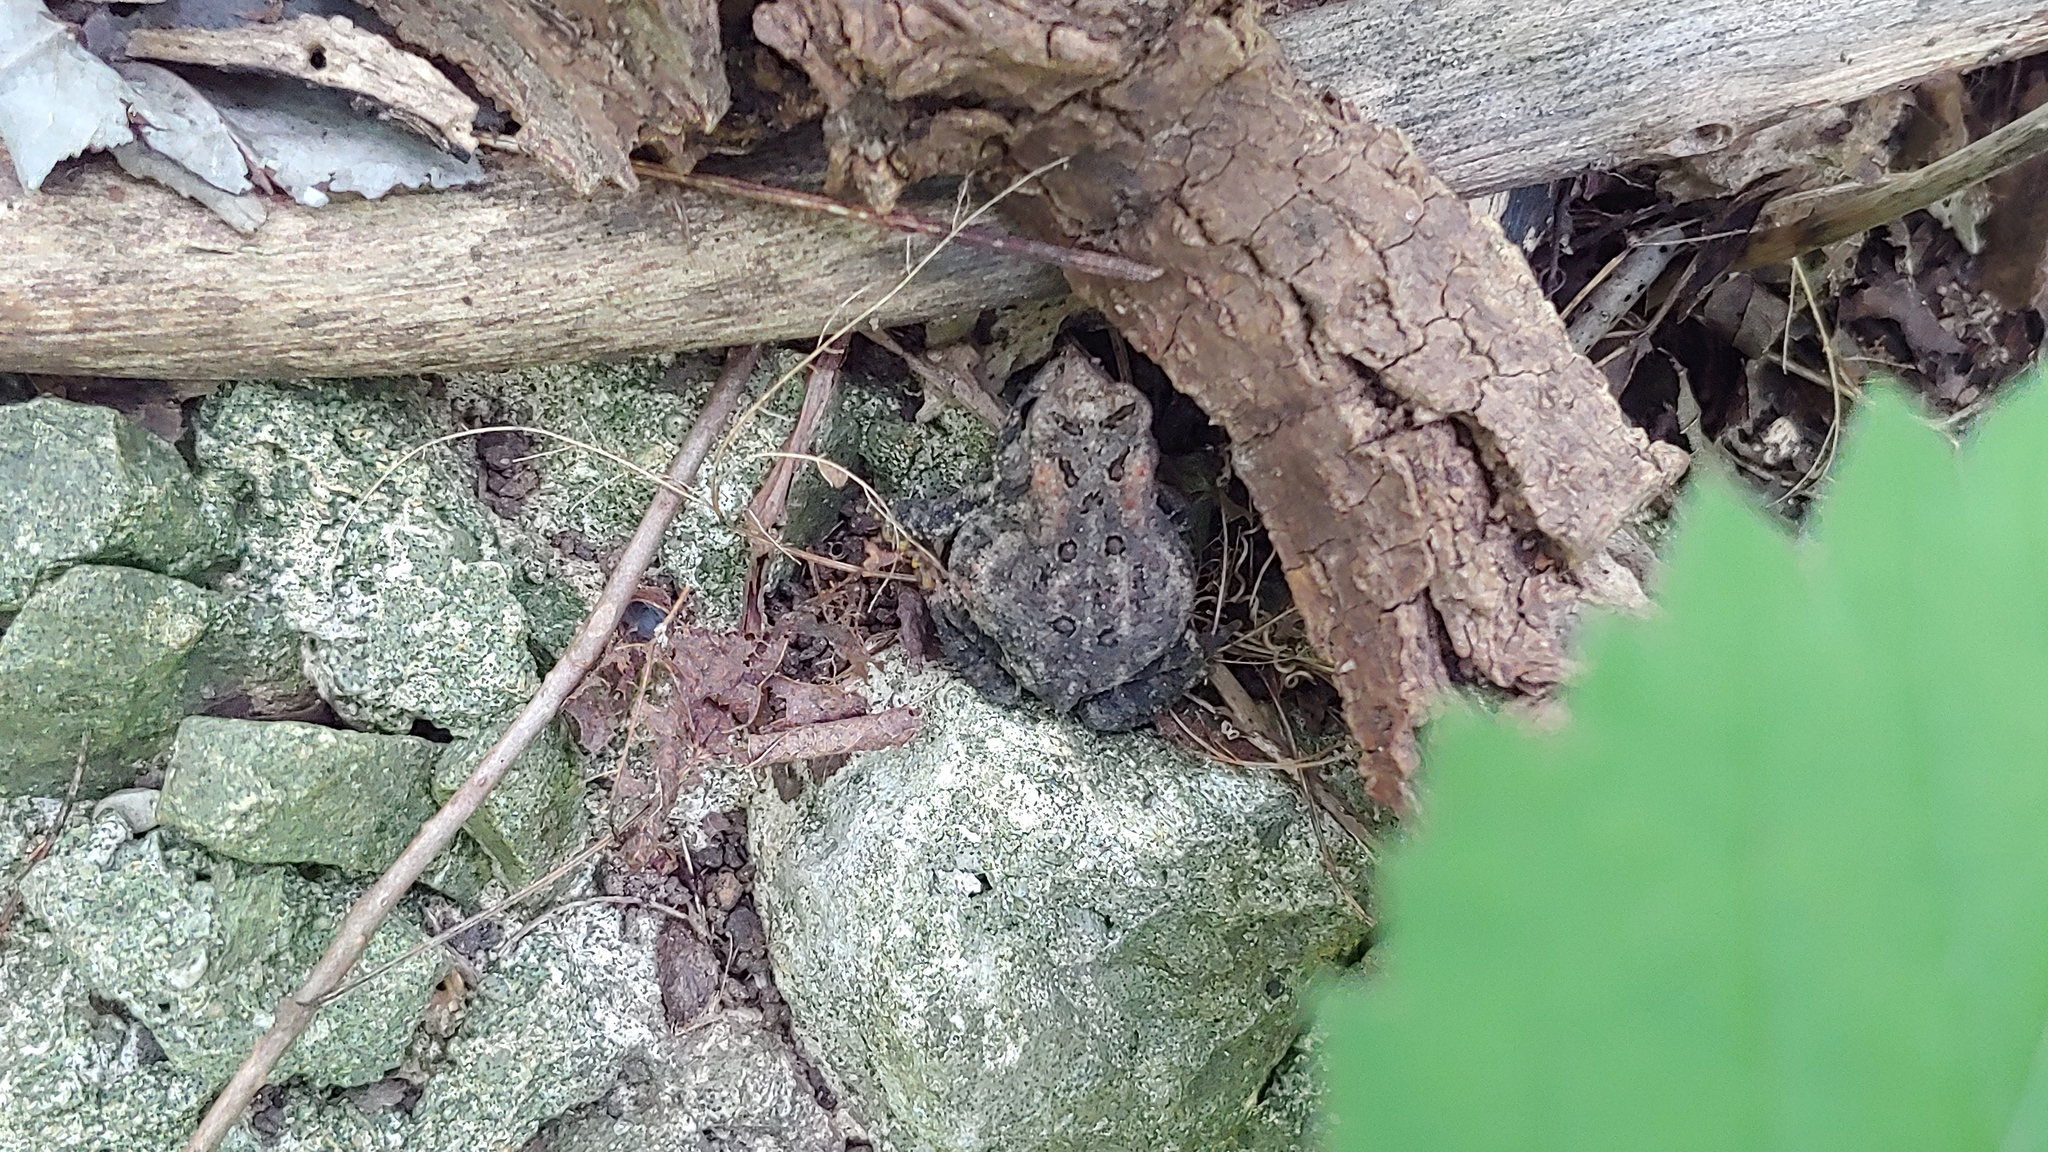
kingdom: Animalia
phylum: Chordata
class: Amphibia
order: Anura
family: Bufonidae
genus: Anaxyrus
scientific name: Anaxyrus americanus
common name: American toad
